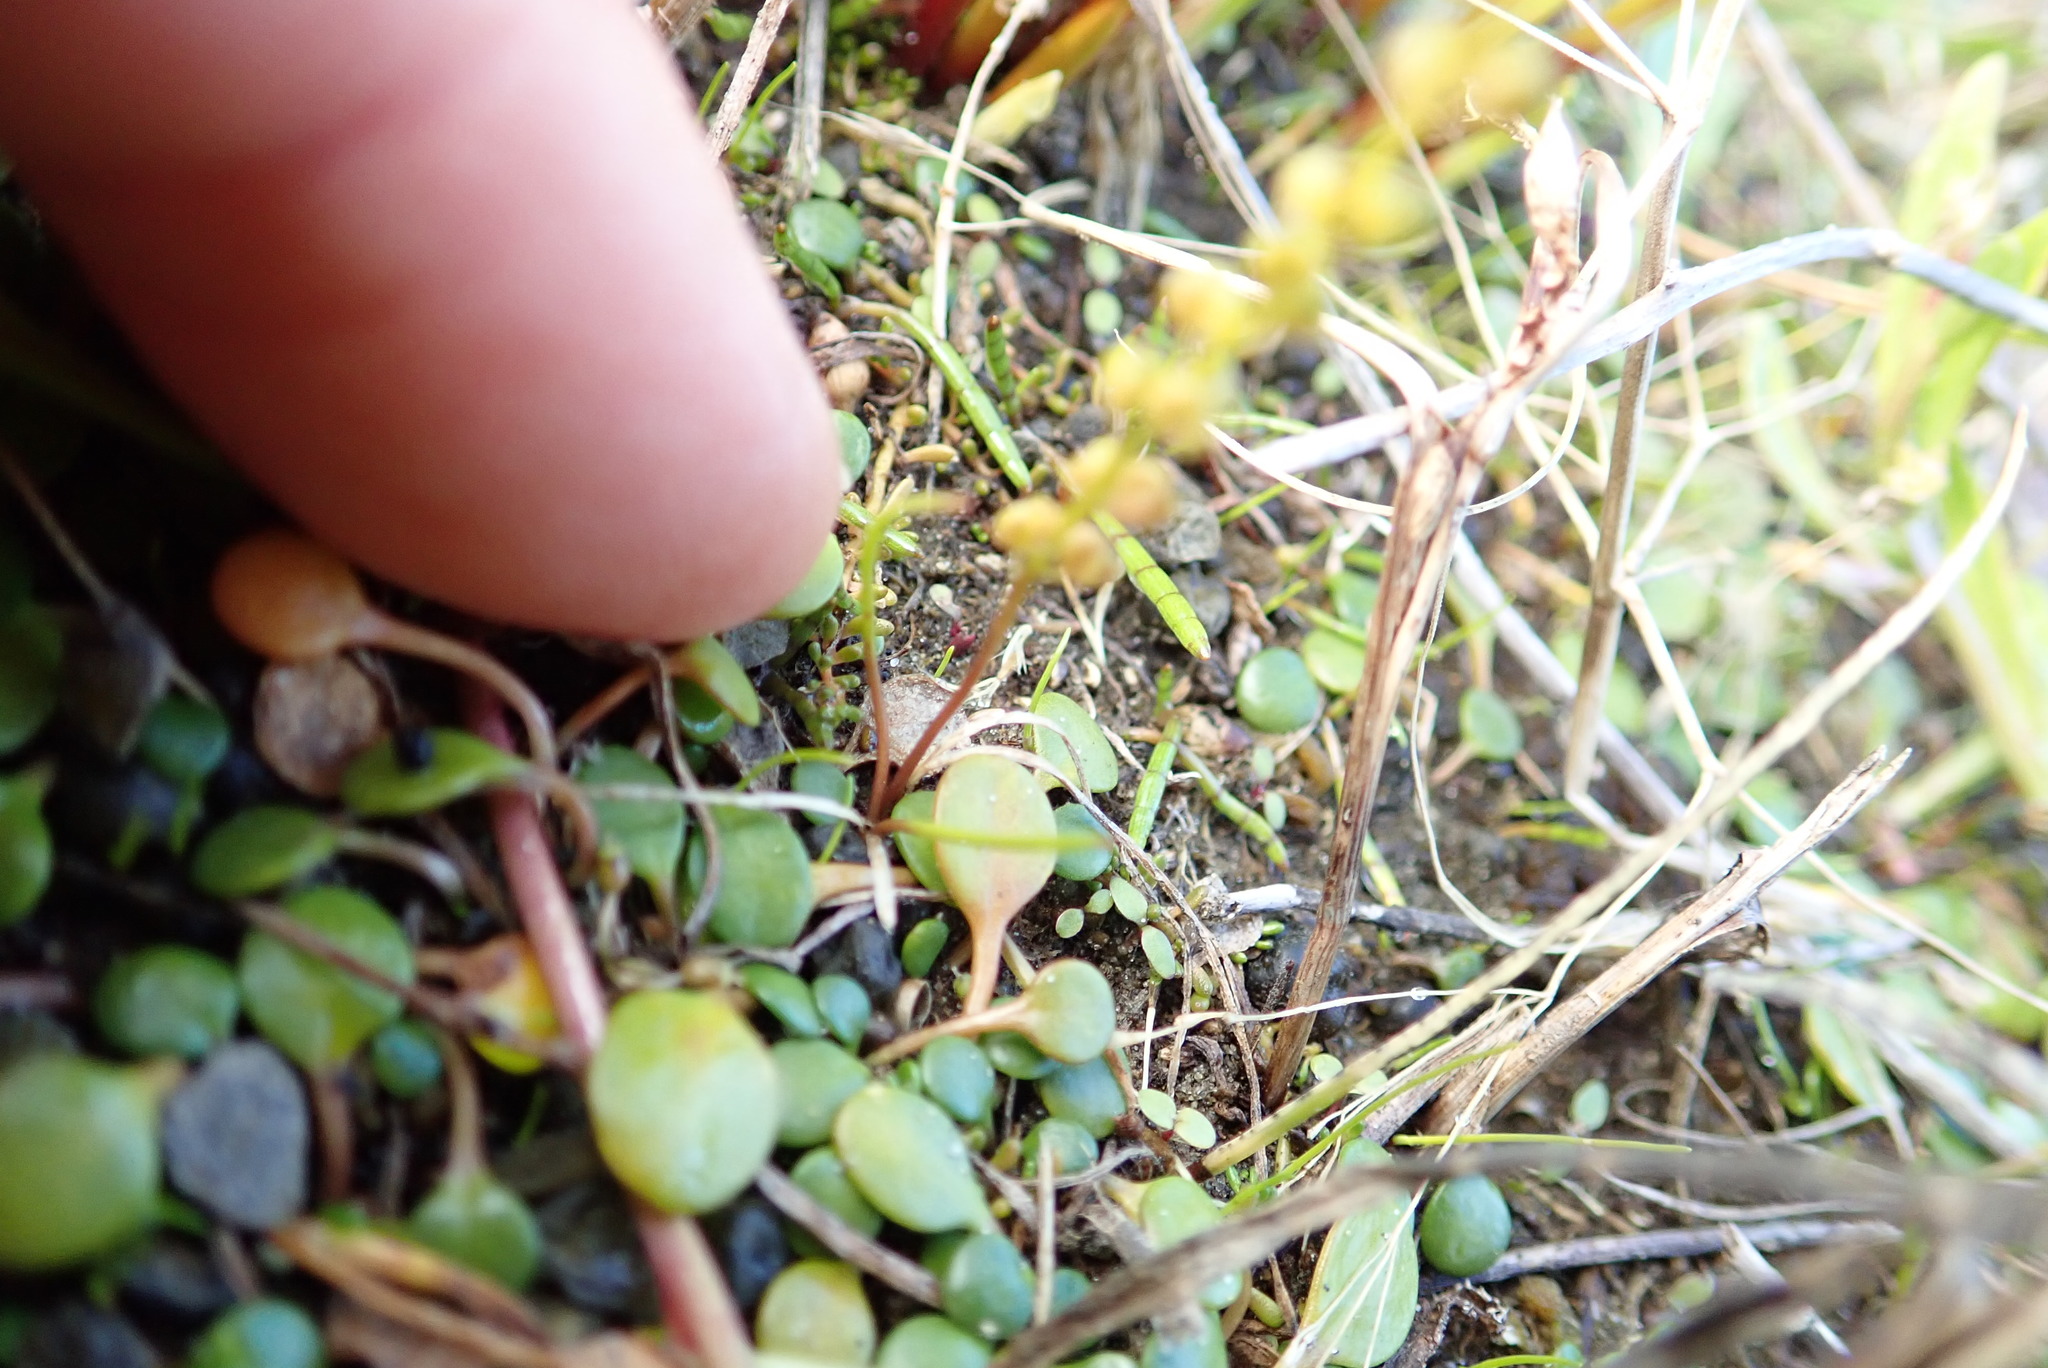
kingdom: Plantae
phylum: Tracheophyta
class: Liliopsida
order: Alismatales
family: Juncaginaceae
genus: Triglochin
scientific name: Triglochin striata
